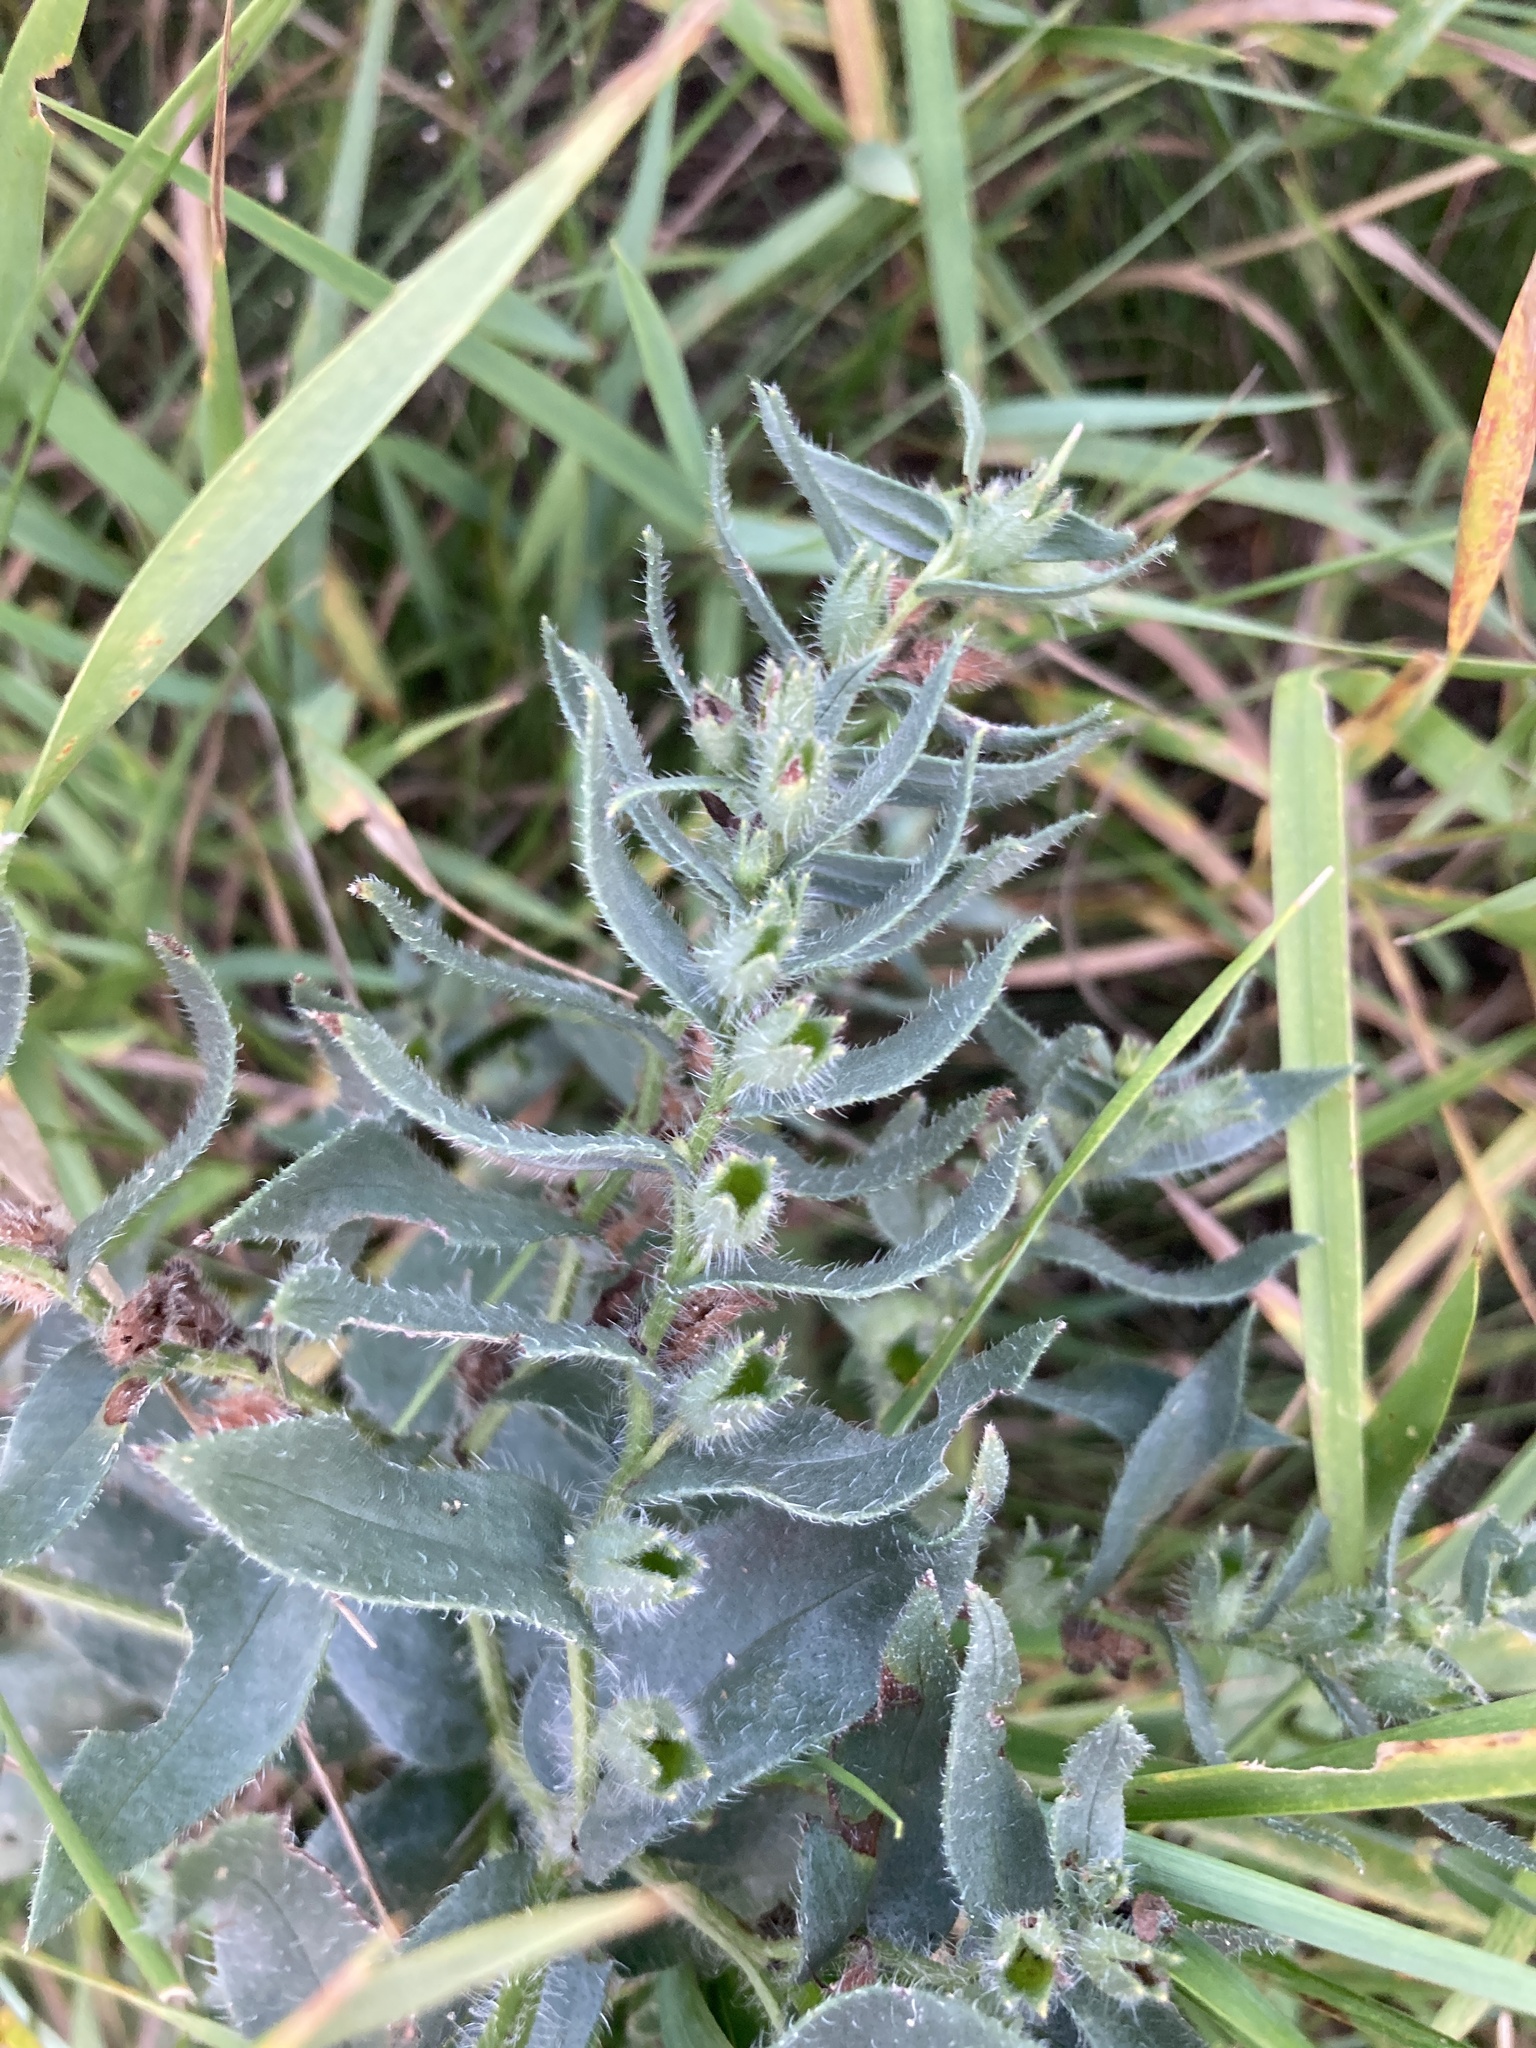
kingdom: Plantae
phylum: Tracheophyta
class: Magnoliopsida
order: Boraginales
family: Boraginaceae
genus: Nonea
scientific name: Nonea pulla
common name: Brown nonea
